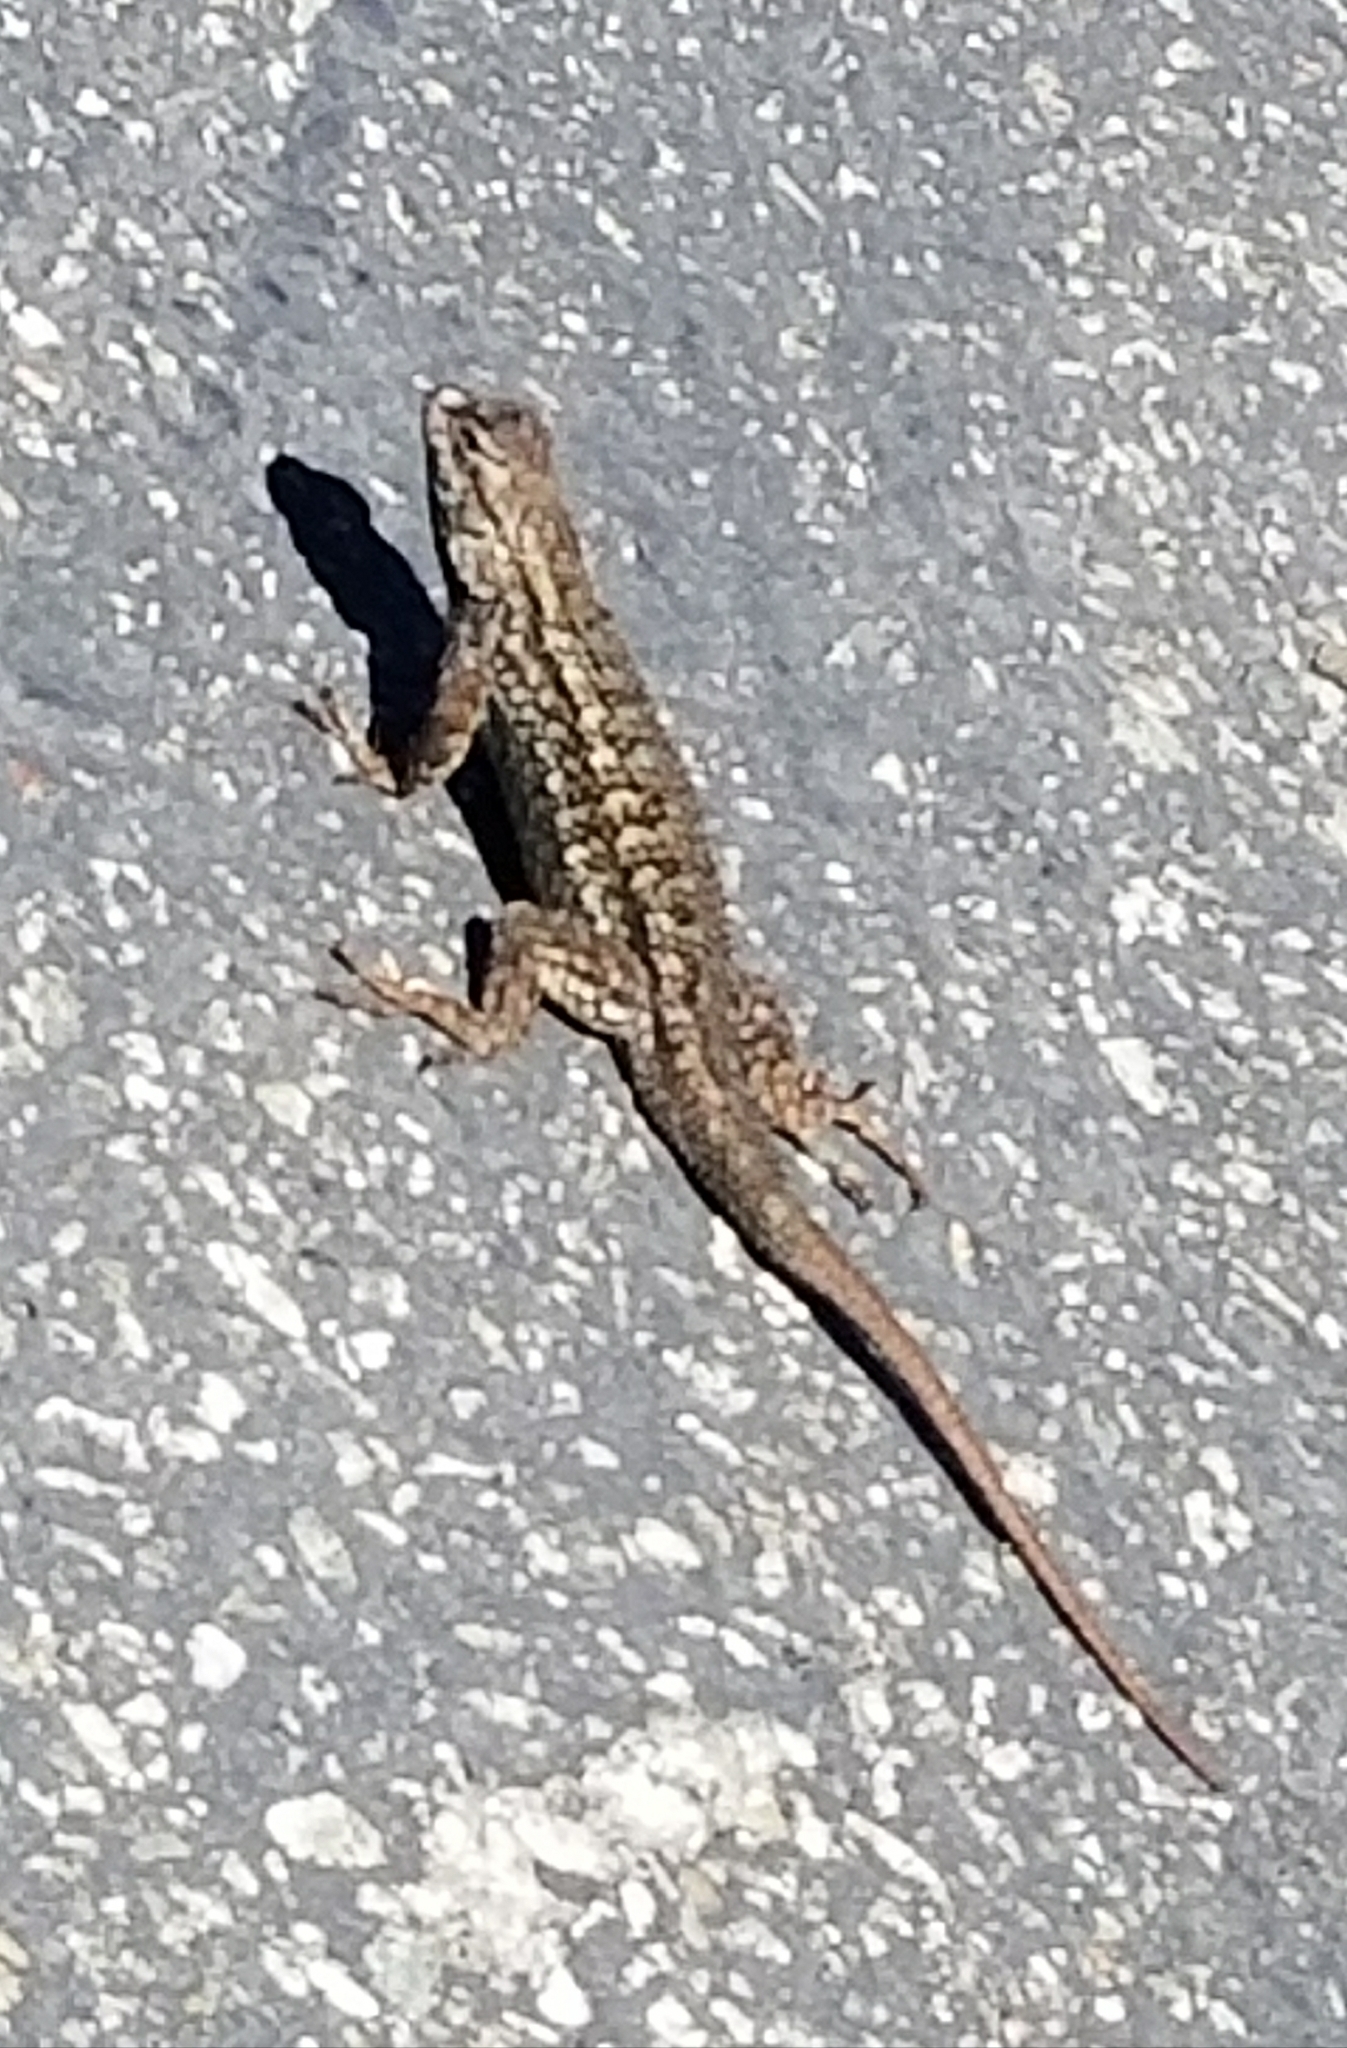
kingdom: Animalia
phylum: Chordata
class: Squamata
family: Phrynosomatidae
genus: Sceloporus
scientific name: Sceloporus occidentalis
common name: Western fence lizard
